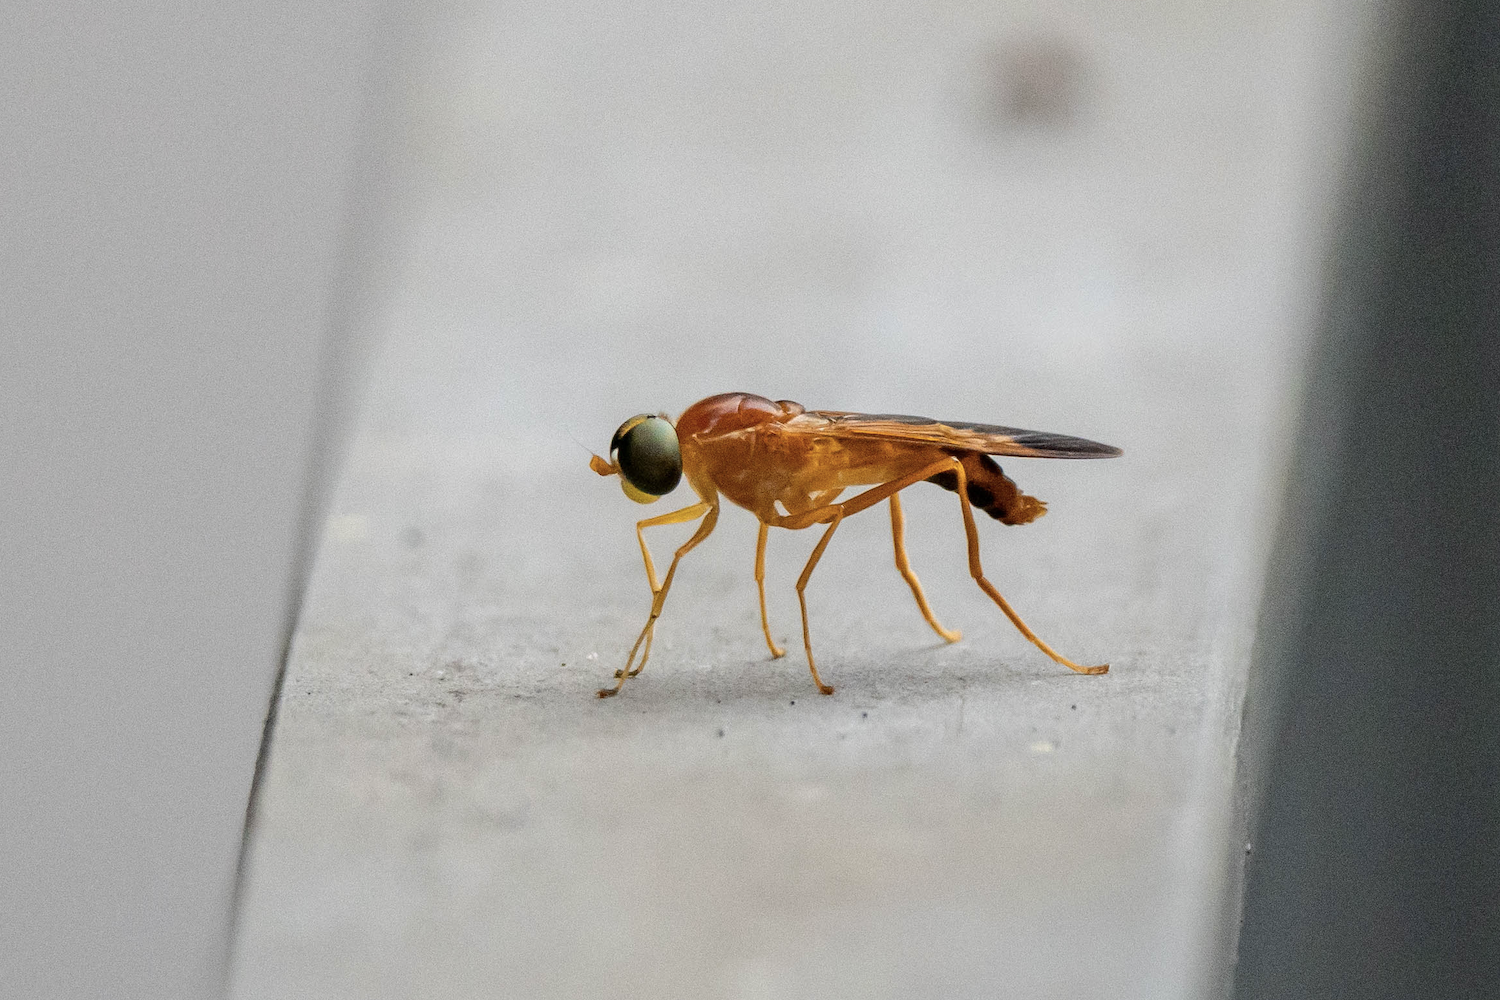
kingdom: Animalia
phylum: Arthropoda
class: Insecta
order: Diptera
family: Stratiomyidae
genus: Ptecticus
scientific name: Ptecticus aurifer
